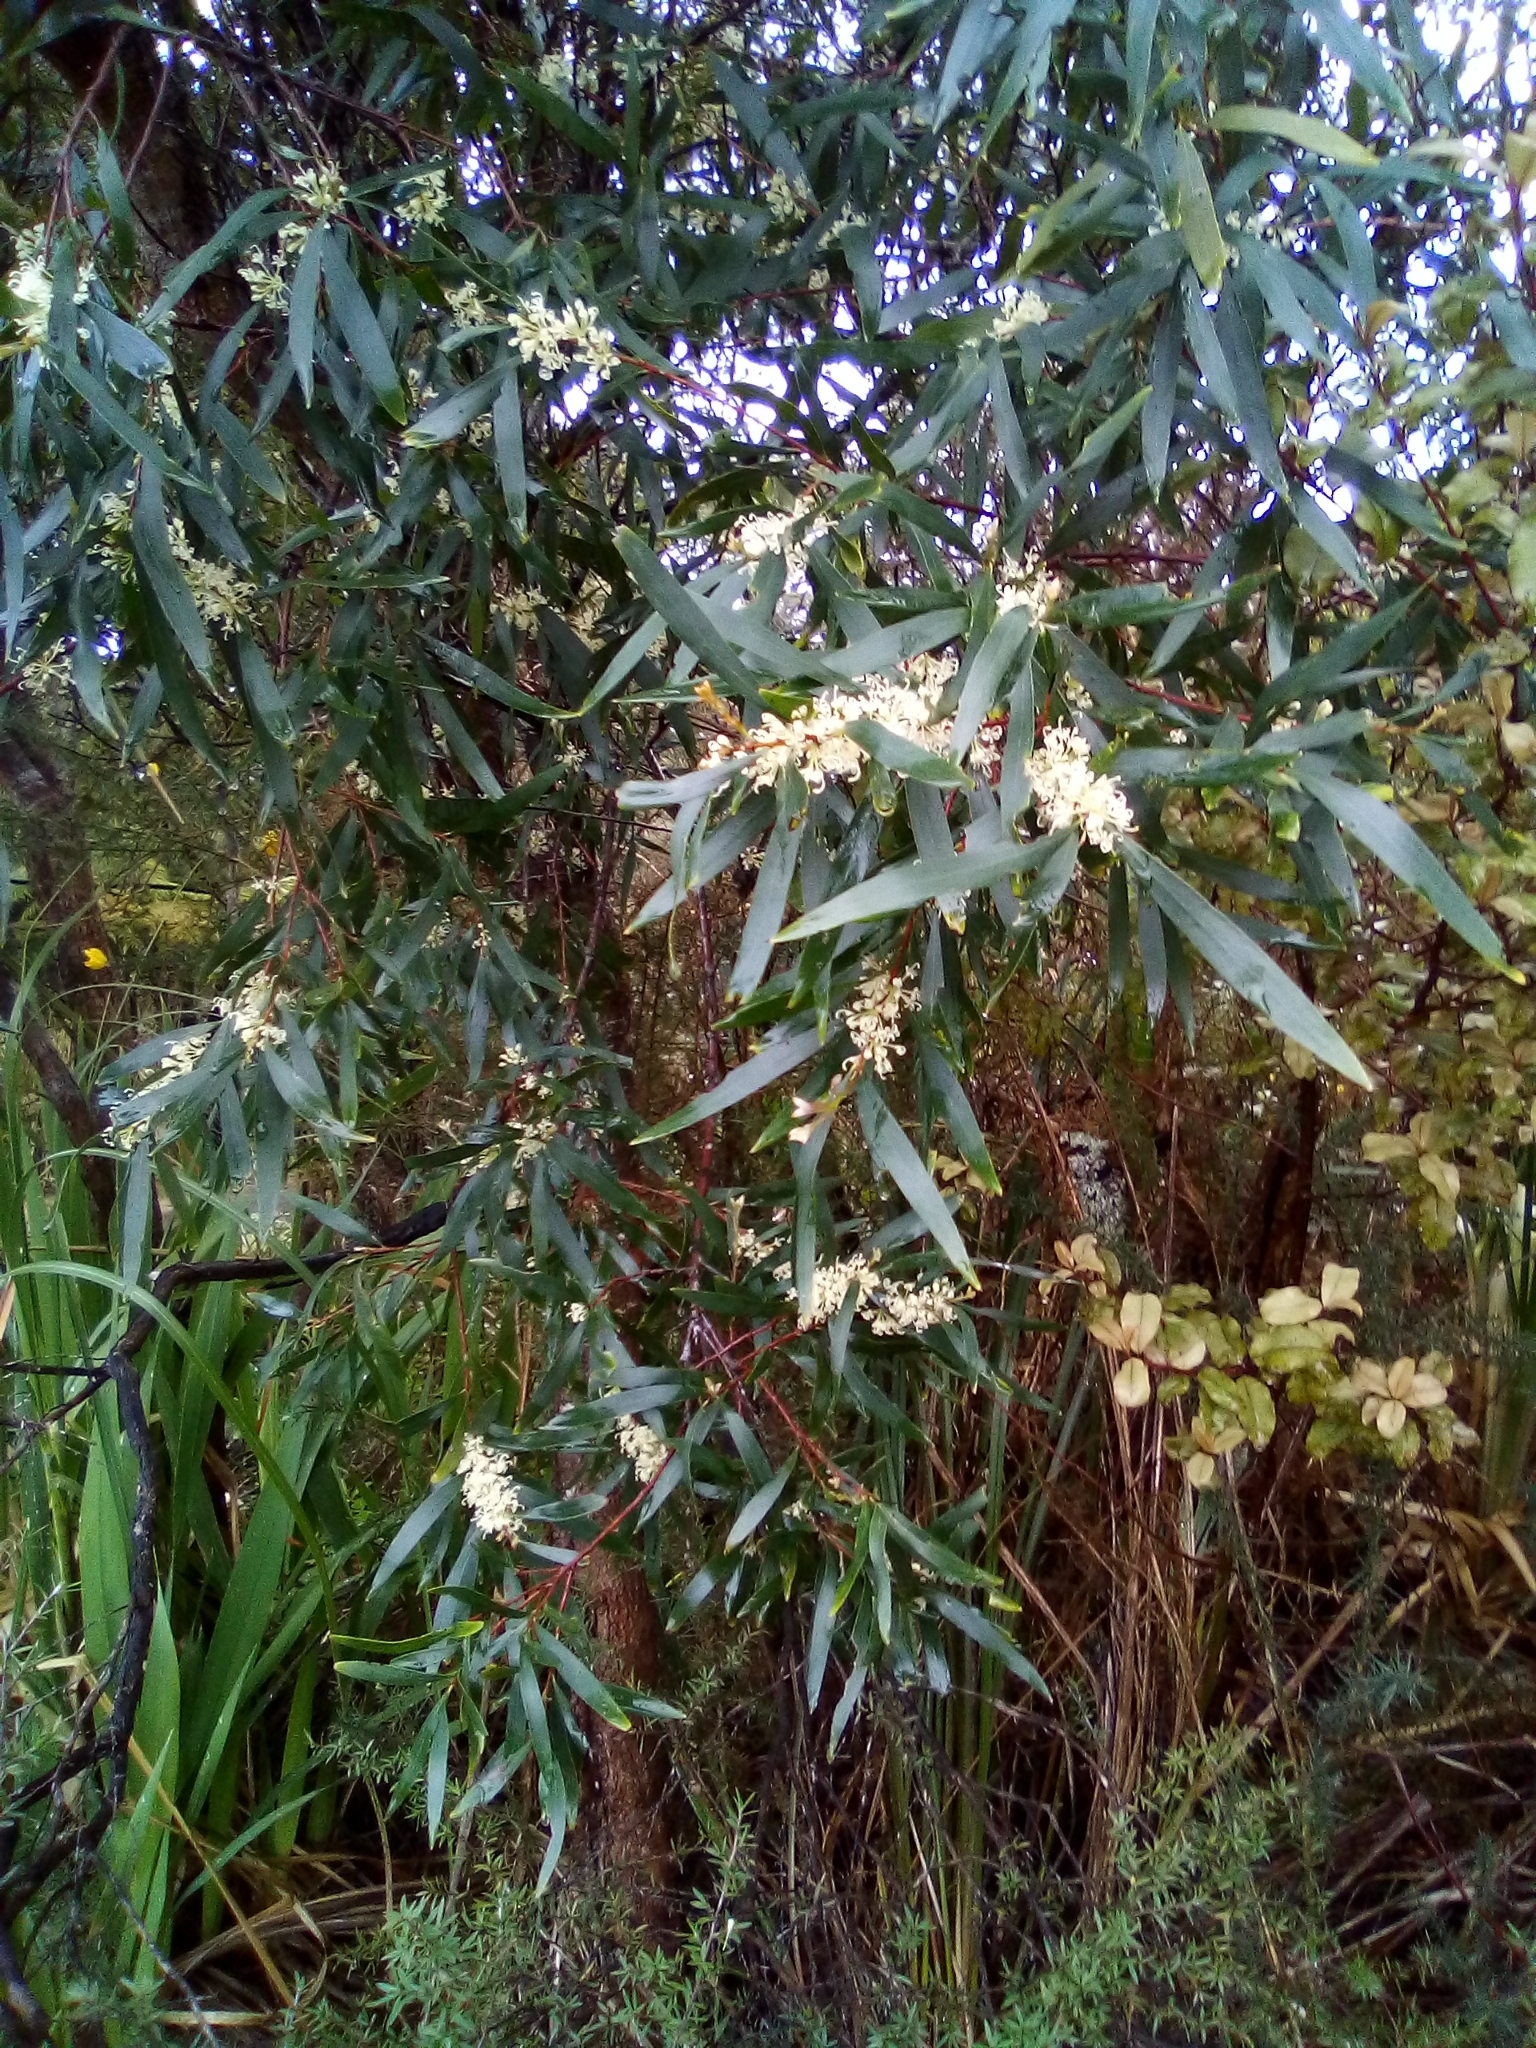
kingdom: Plantae
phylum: Tracheophyta
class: Magnoliopsida
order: Proteales
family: Proteaceae
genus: Hakea
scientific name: Hakea salicifolia
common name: Willow hakea
